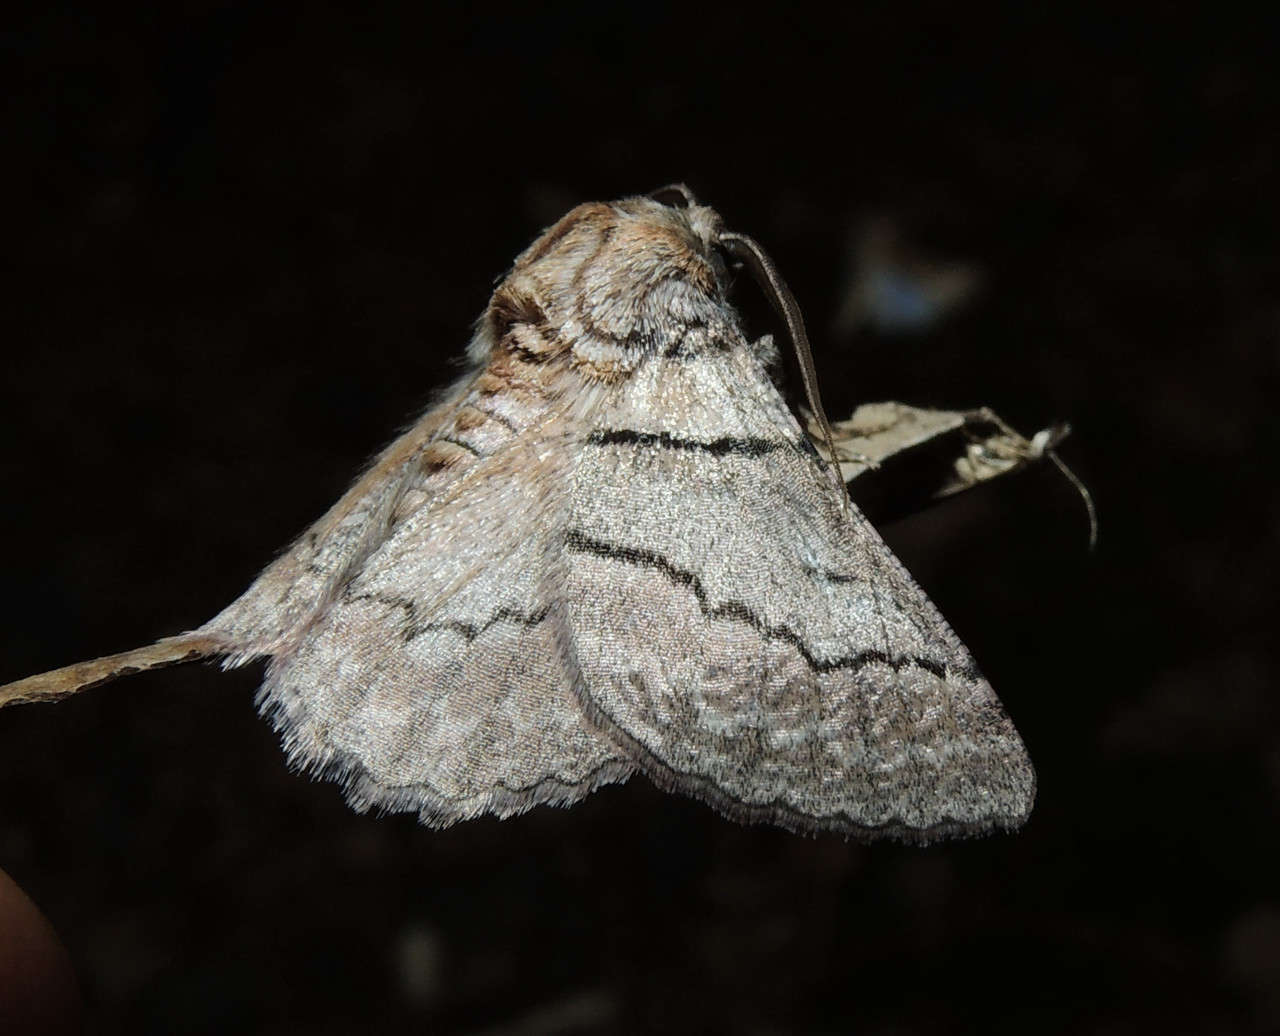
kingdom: Animalia
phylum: Arthropoda
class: Insecta
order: Lepidoptera
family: Geometridae
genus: Hypobapta
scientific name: Hypobapta tachyhalotaria
